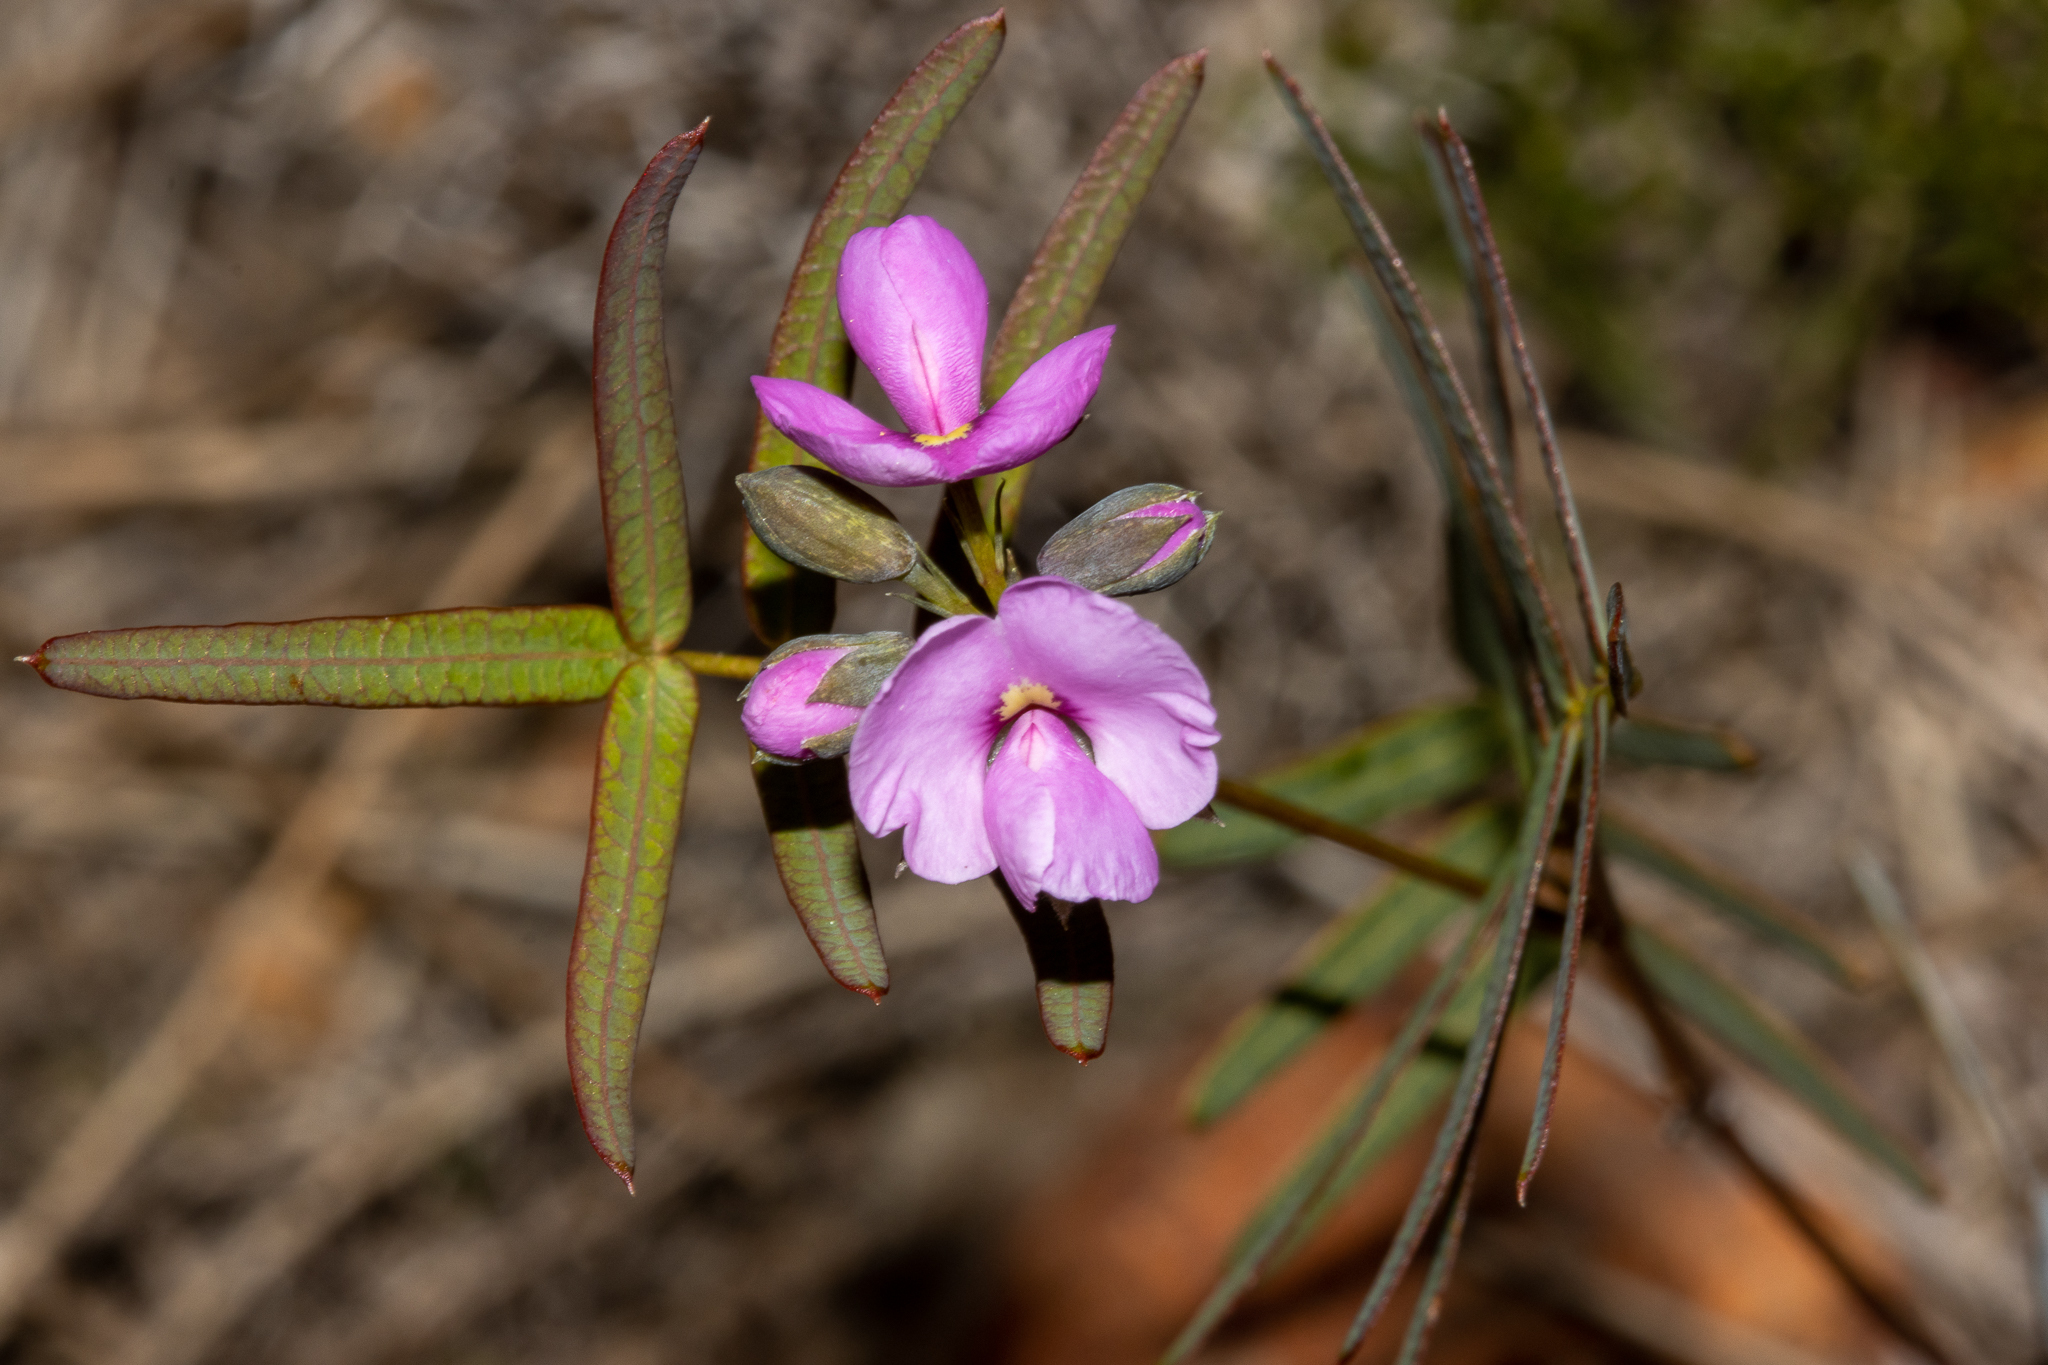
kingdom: Plantae
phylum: Tracheophyta
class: Magnoliopsida
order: Fabales
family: Fabaceae
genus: Gompholobium
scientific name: Gompholobium knightianum
